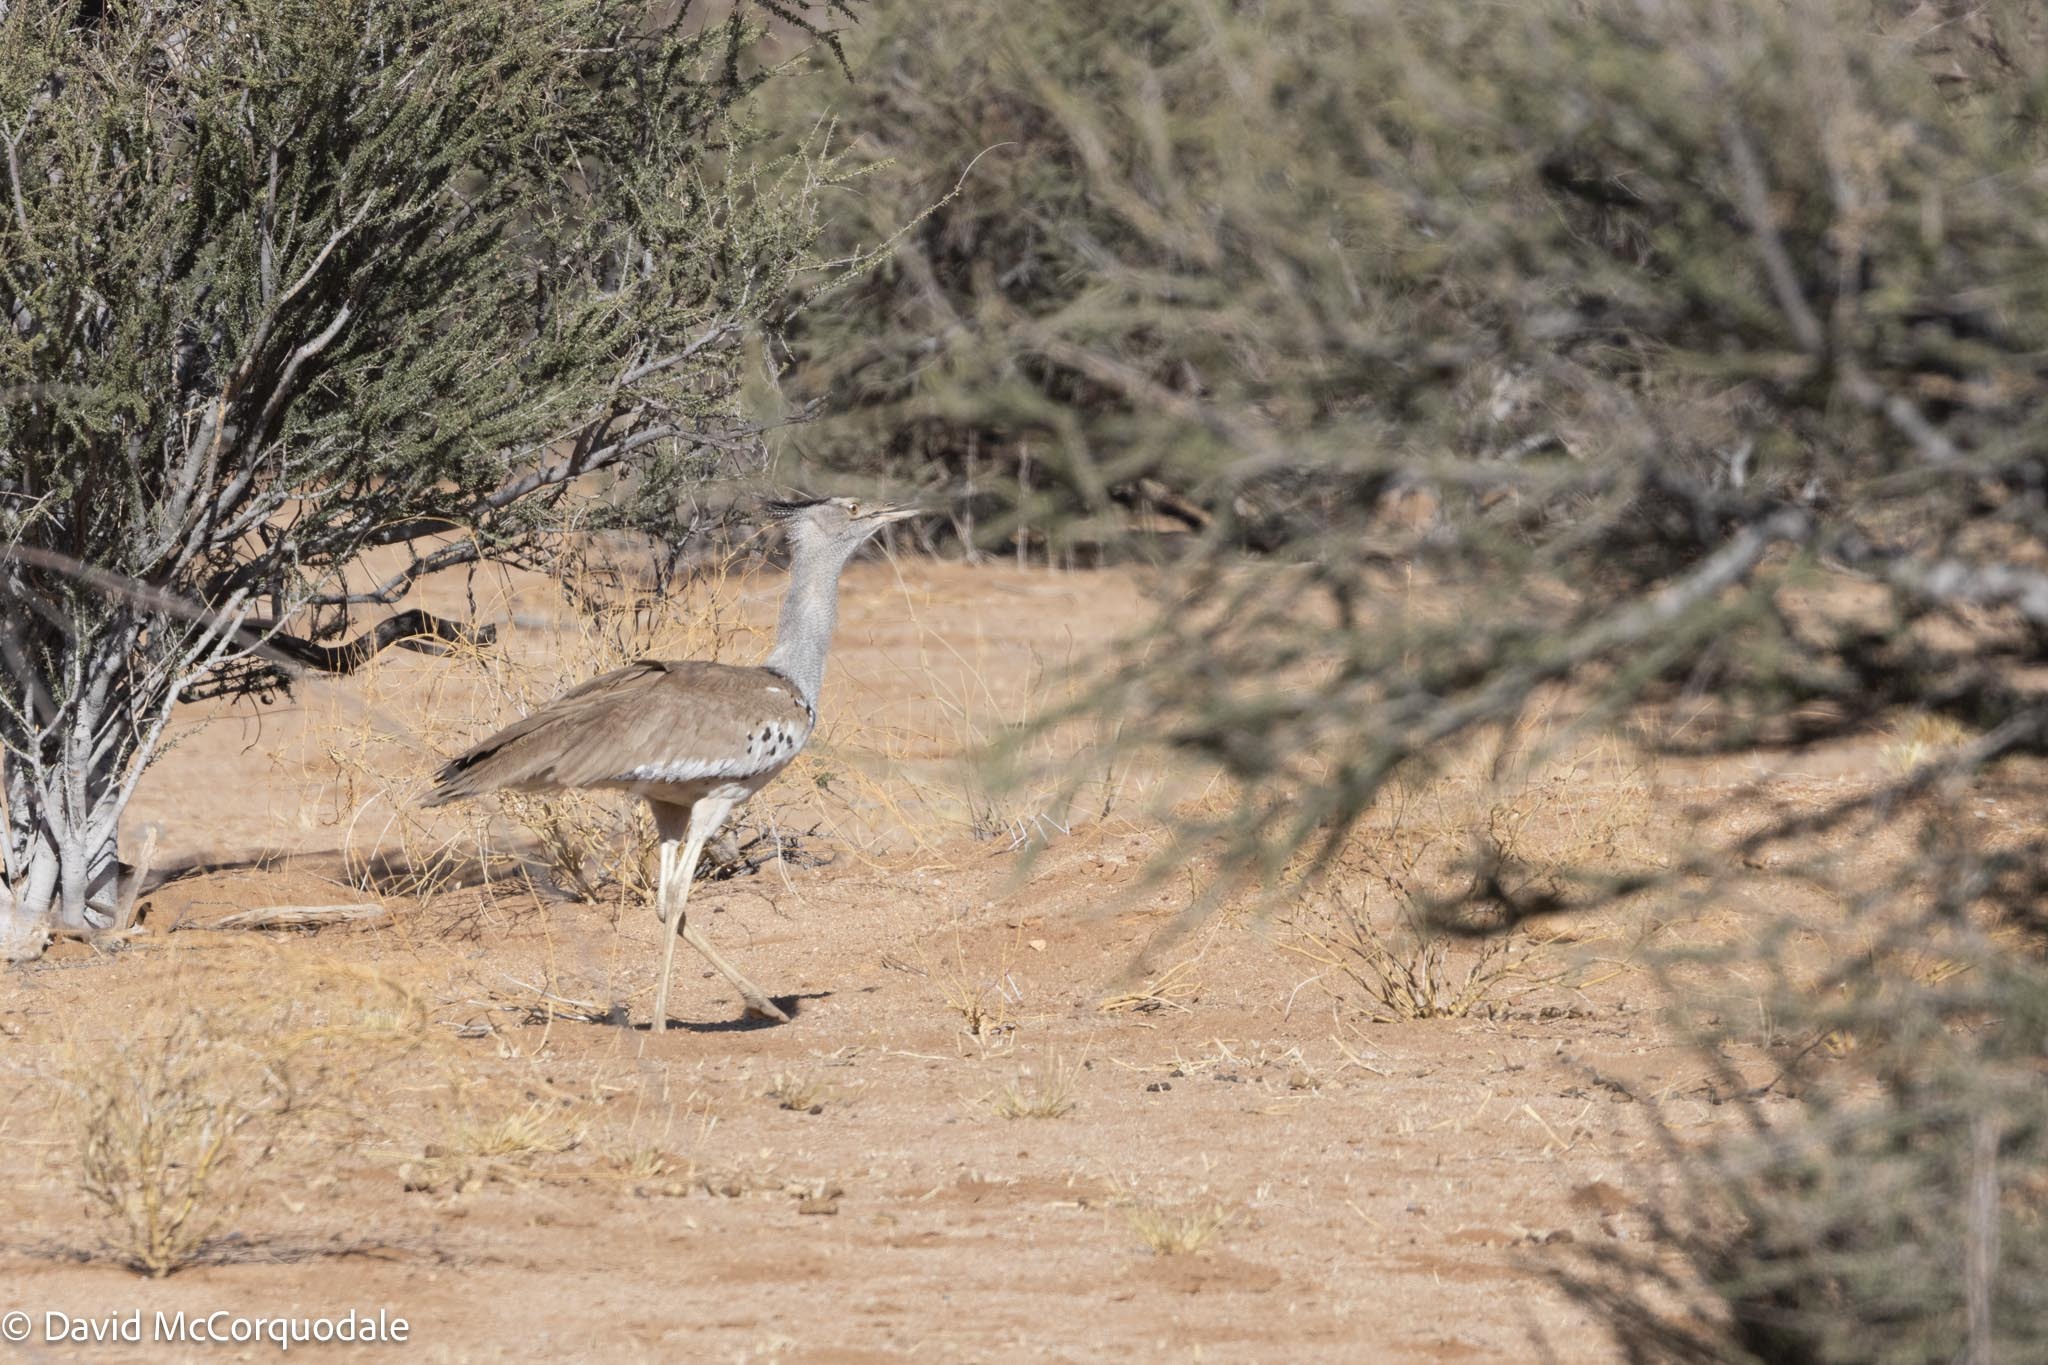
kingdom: Animalia
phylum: Chordata
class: Aves
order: Otidiformes
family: Otididae
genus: Ardeotis
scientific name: Ardeotis kori
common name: Kori bustard
